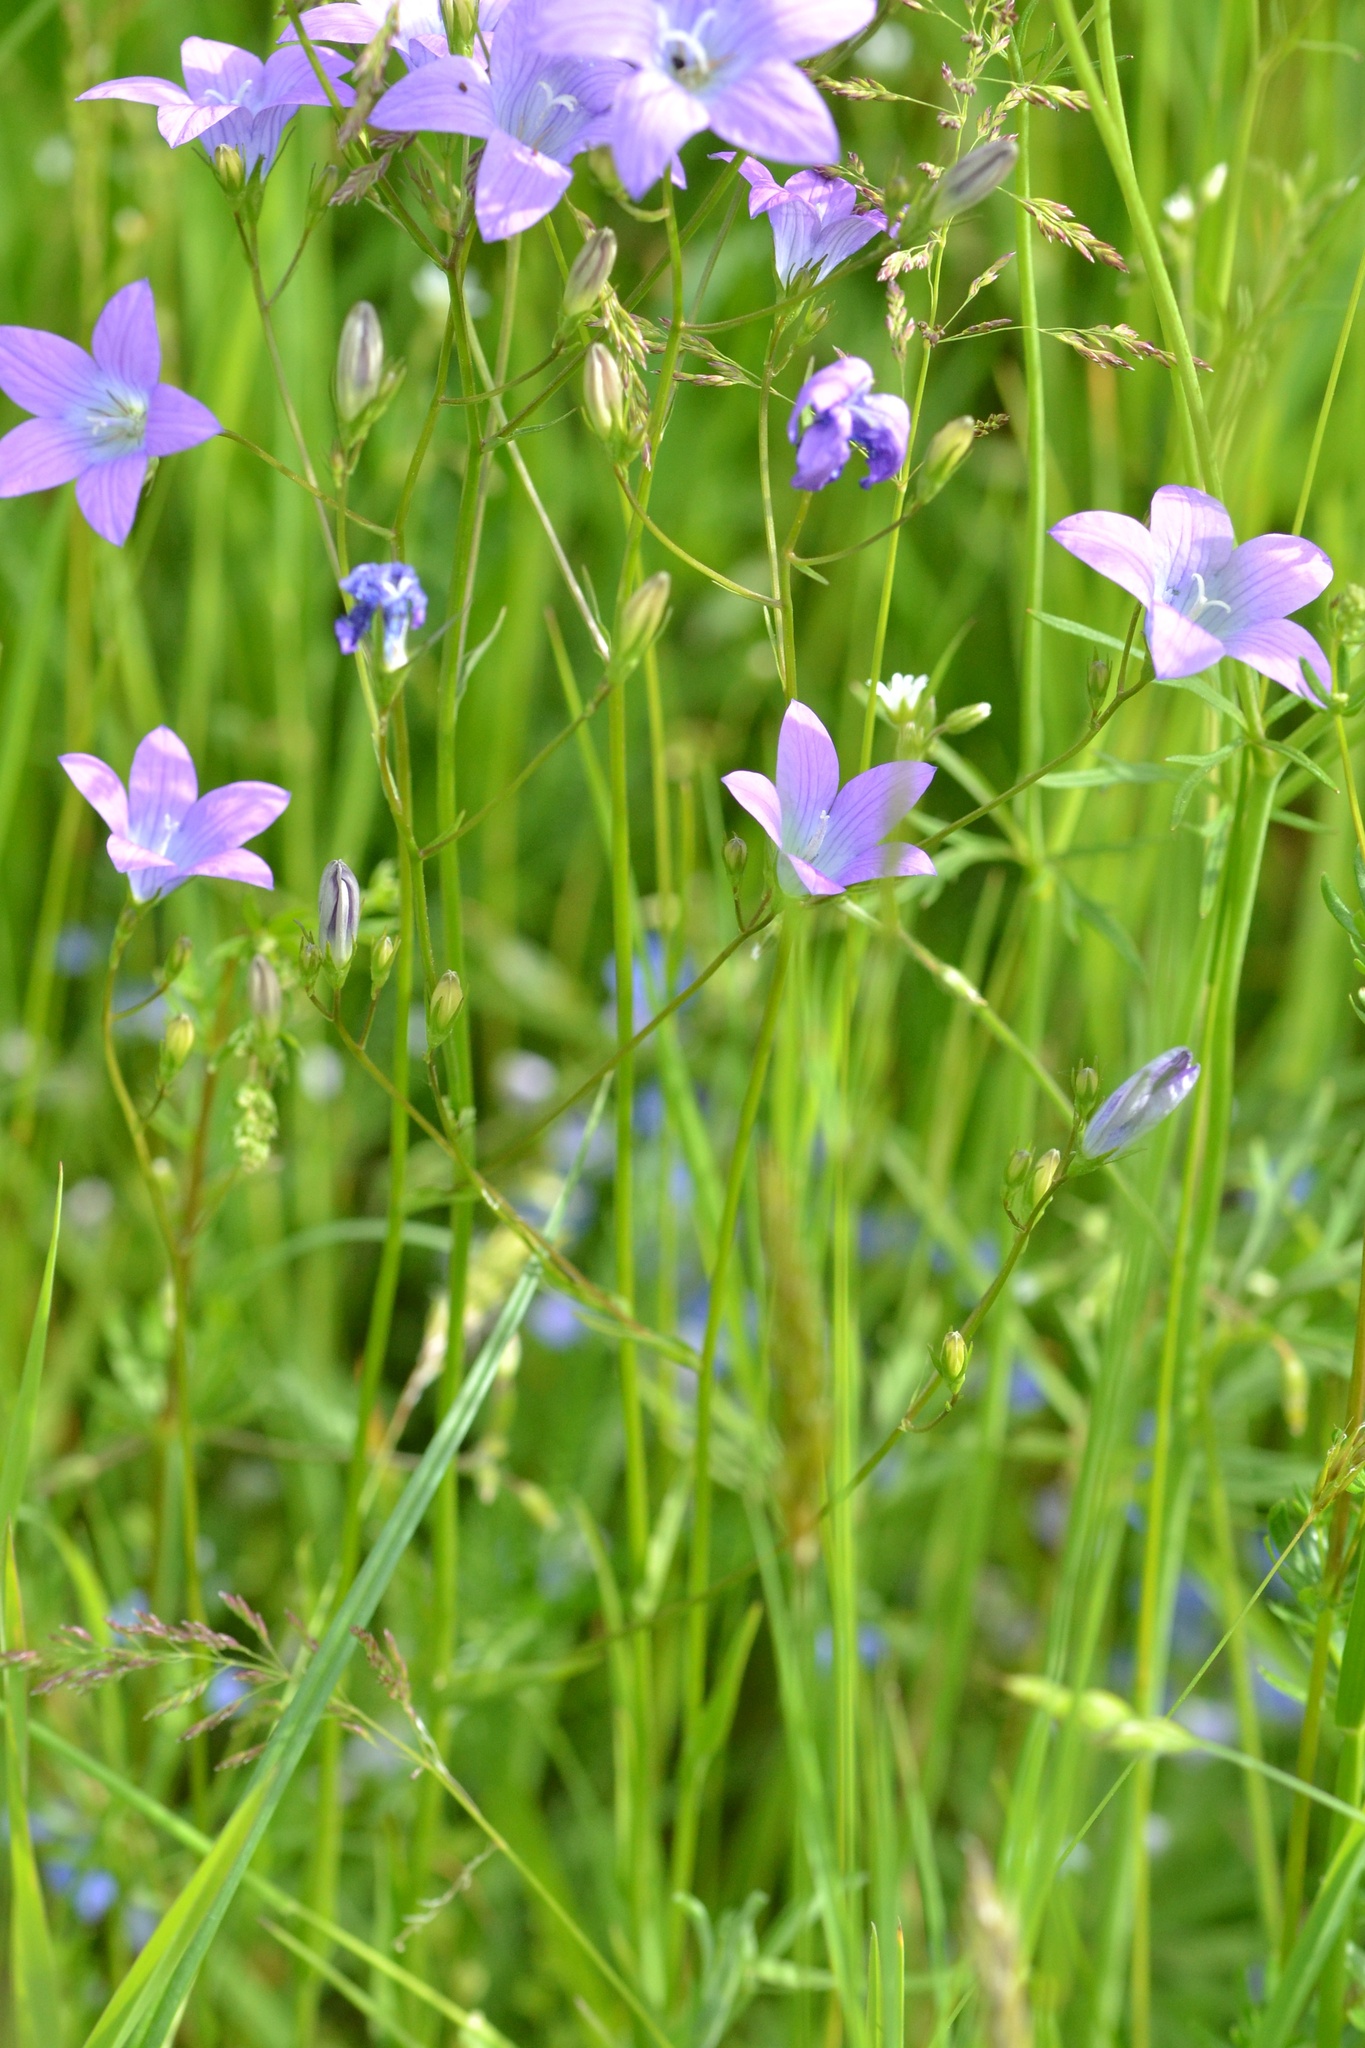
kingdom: Plantae
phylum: Tracheophyta
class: Magnoliopsida
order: Asterales
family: Campanulaceae
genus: Campanula
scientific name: Campanula patula
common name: Spreading bellflower
